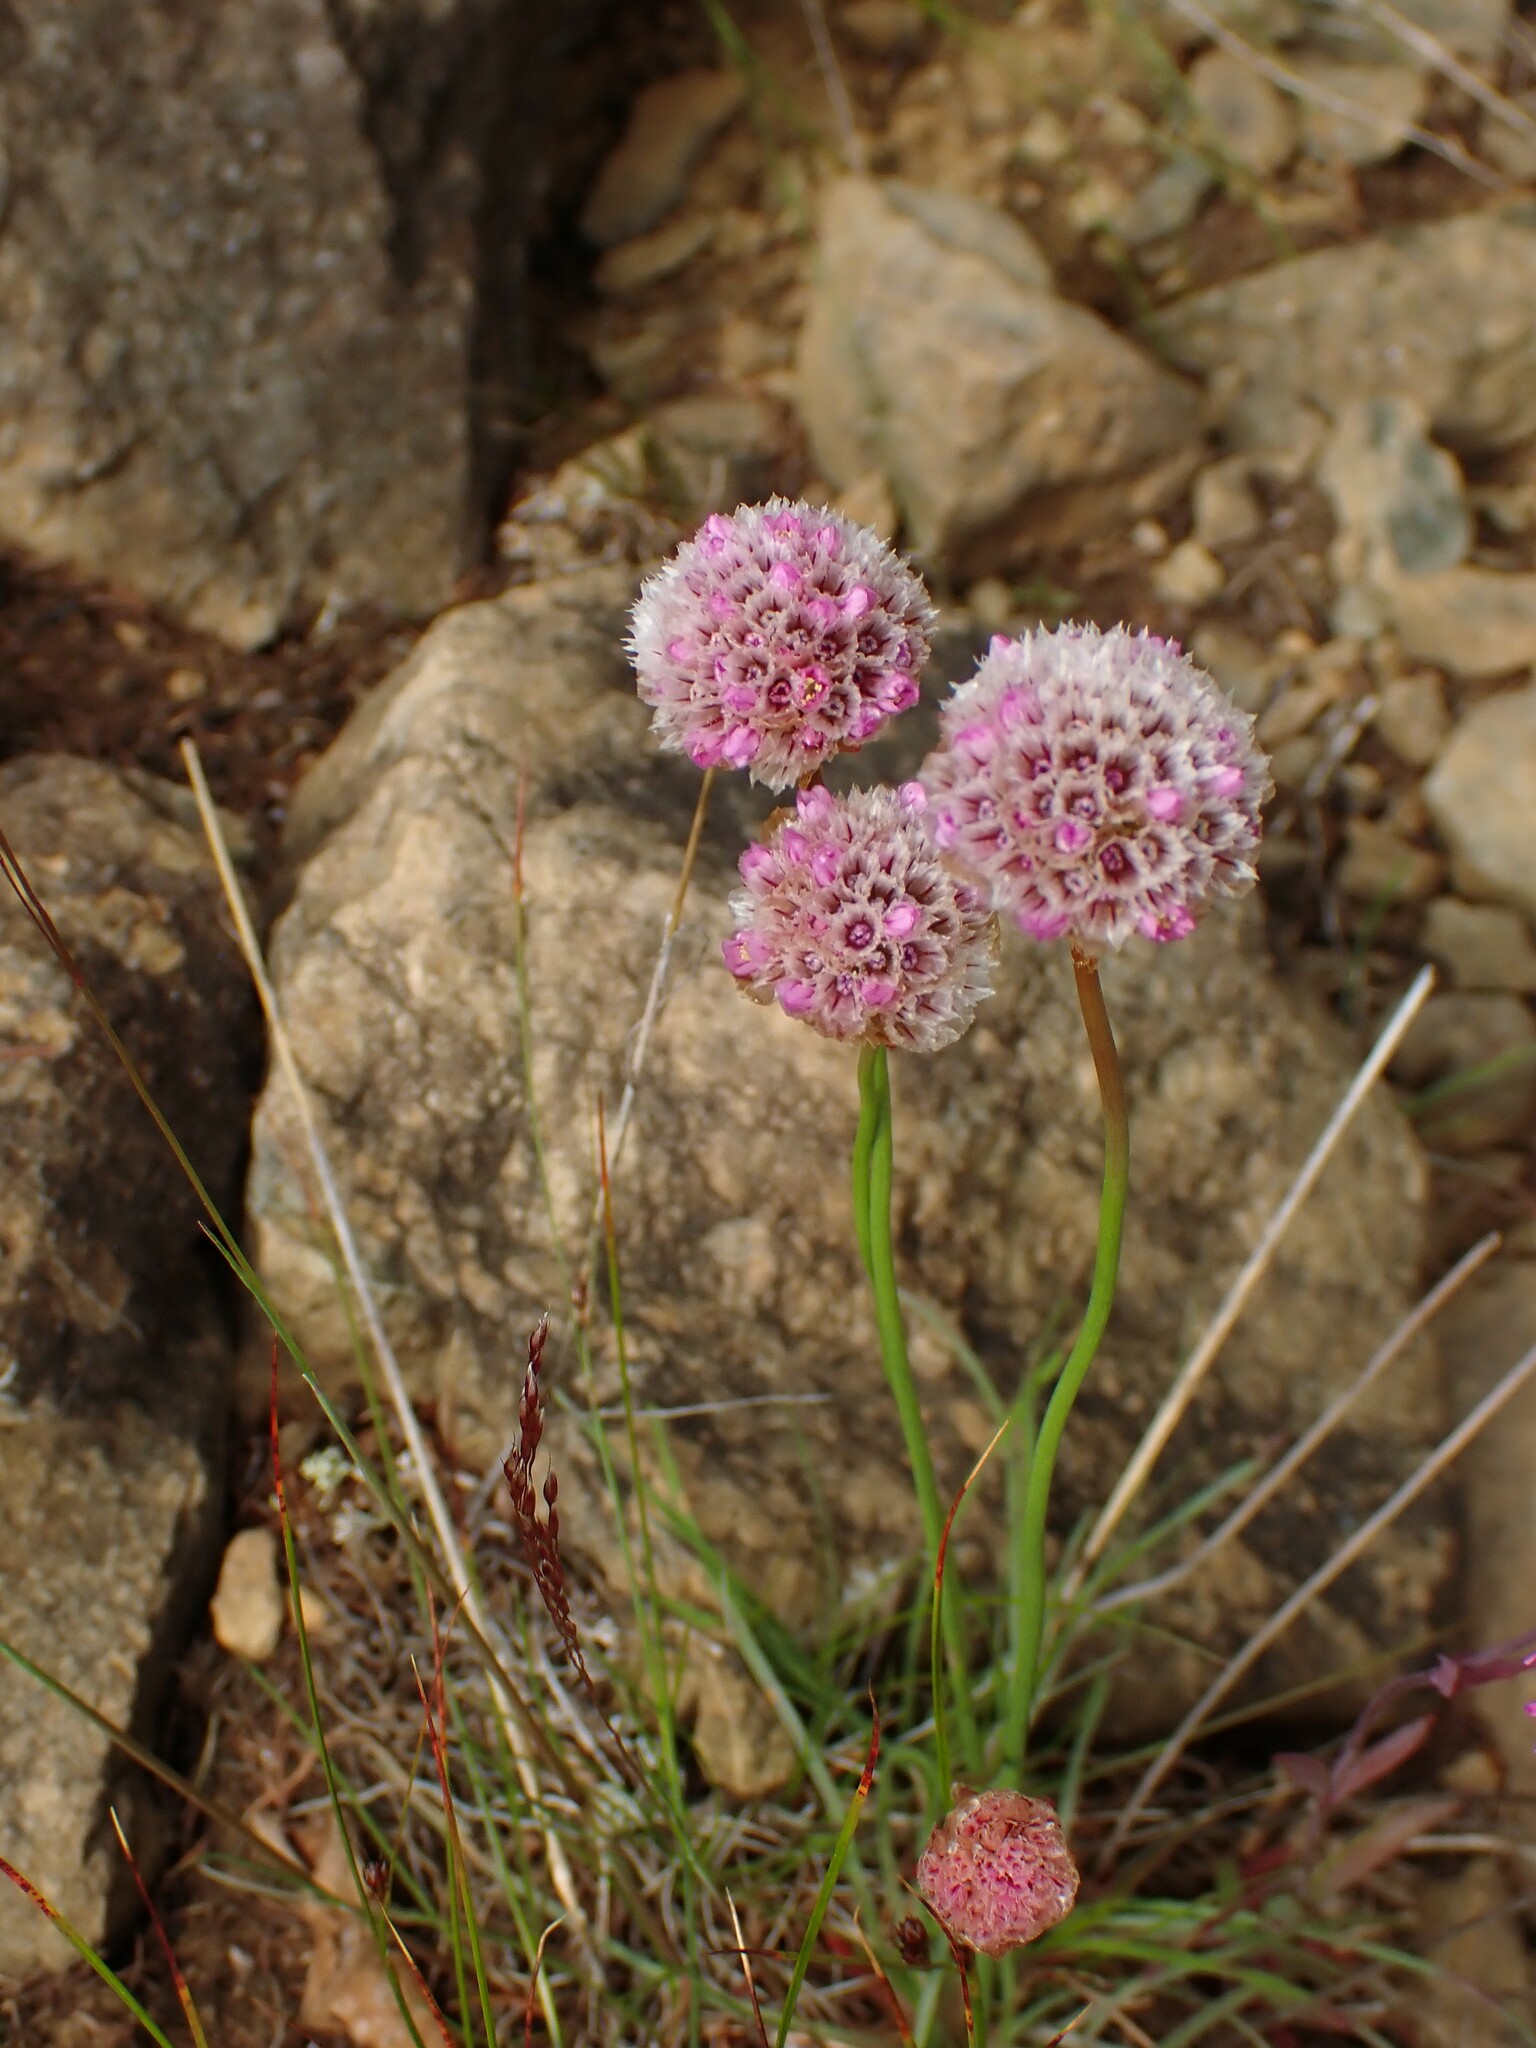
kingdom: Plantae
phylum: Tracheophyta
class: Magnoliopsida
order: Caryophyllales
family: Plumbaginaceae
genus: Armeria
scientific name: Armeria maritima
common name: Thrift
